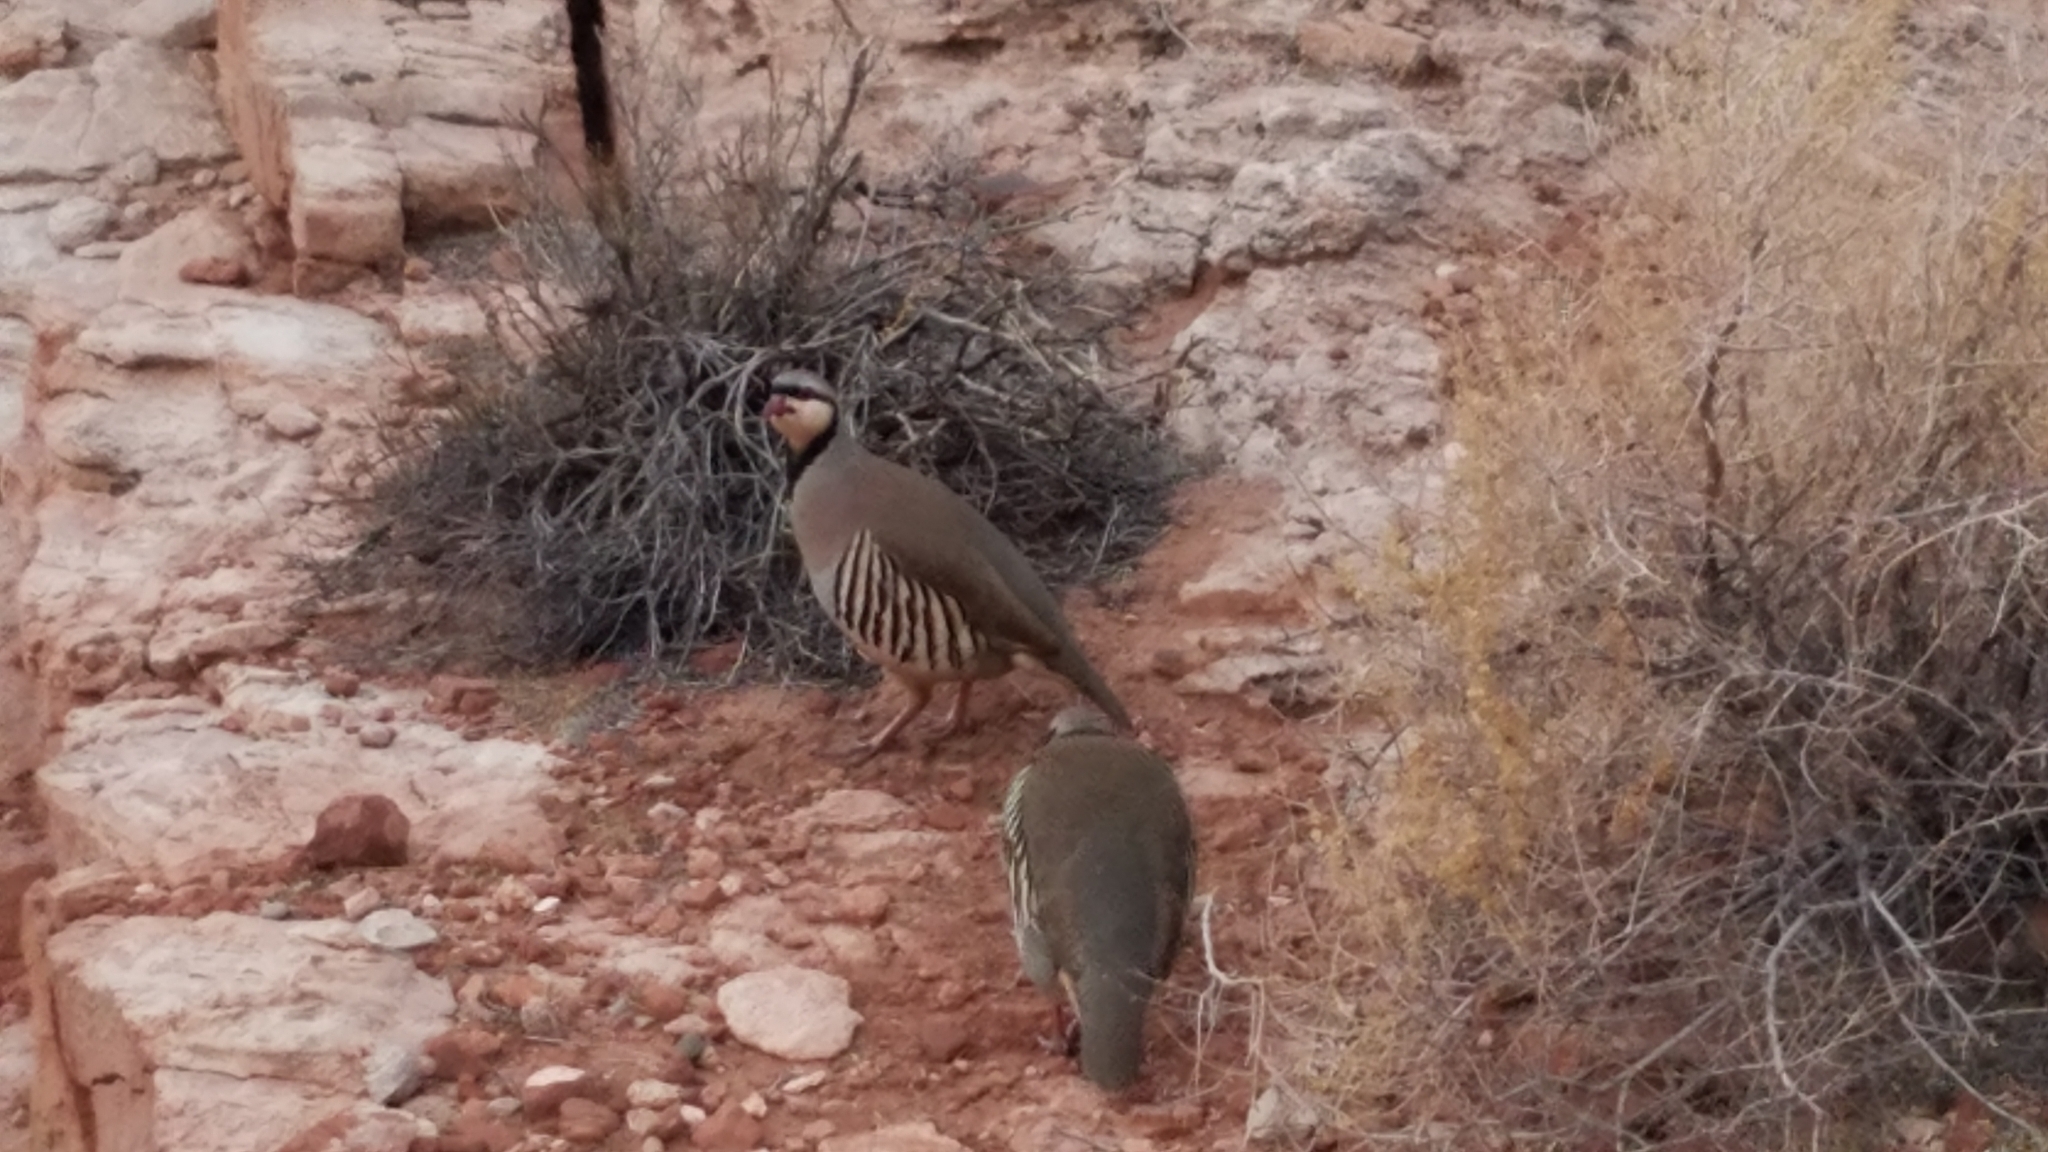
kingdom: Animalia
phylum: Chordata
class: Aves
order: Galliformes
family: Phasianidae
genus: Alectoris
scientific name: Alectoris chukar
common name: Chukar
